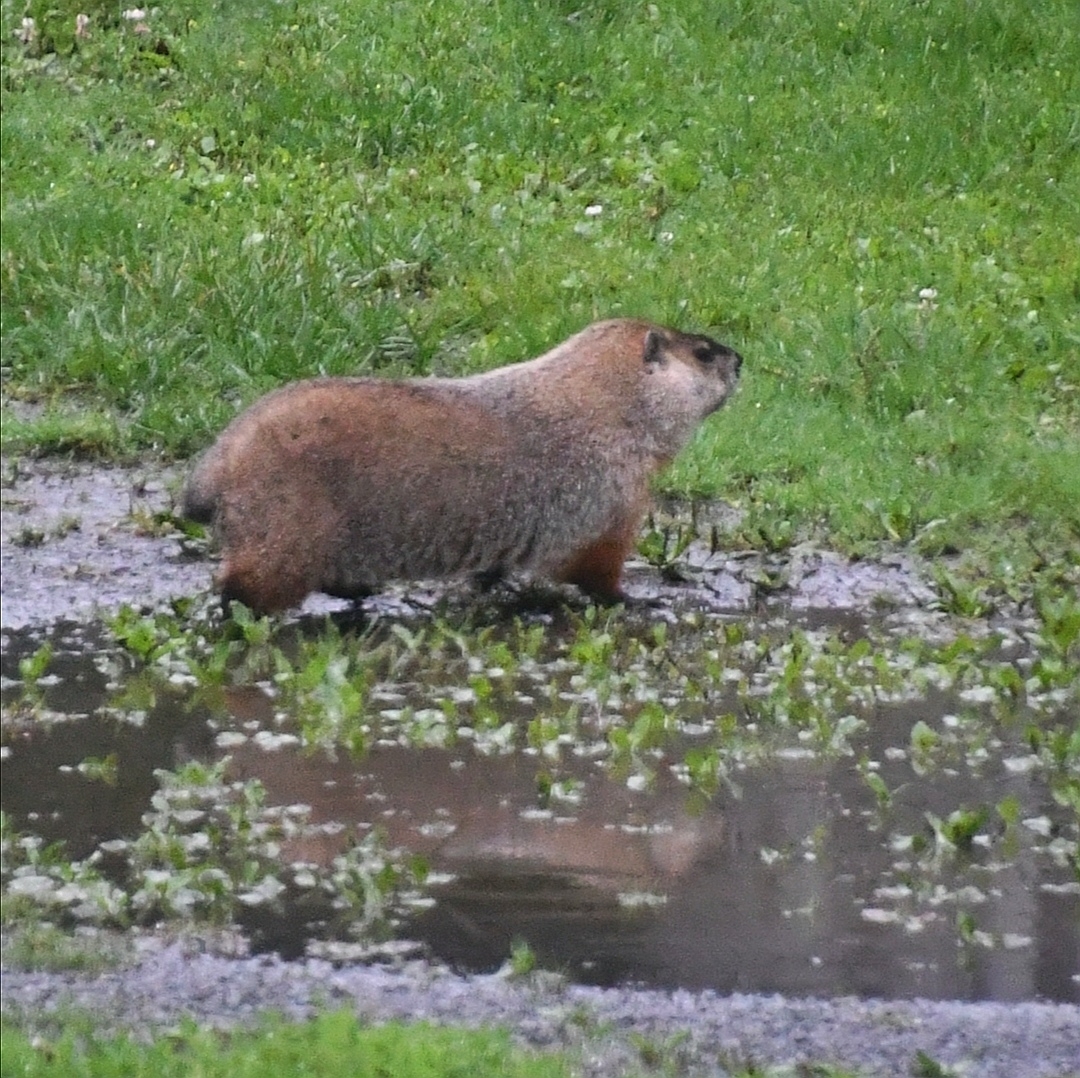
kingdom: Animalia
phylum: Chordata
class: Mammalia
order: Rodentia
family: Sciuridae
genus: Marmota
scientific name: Marmota monax
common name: Groundhog
